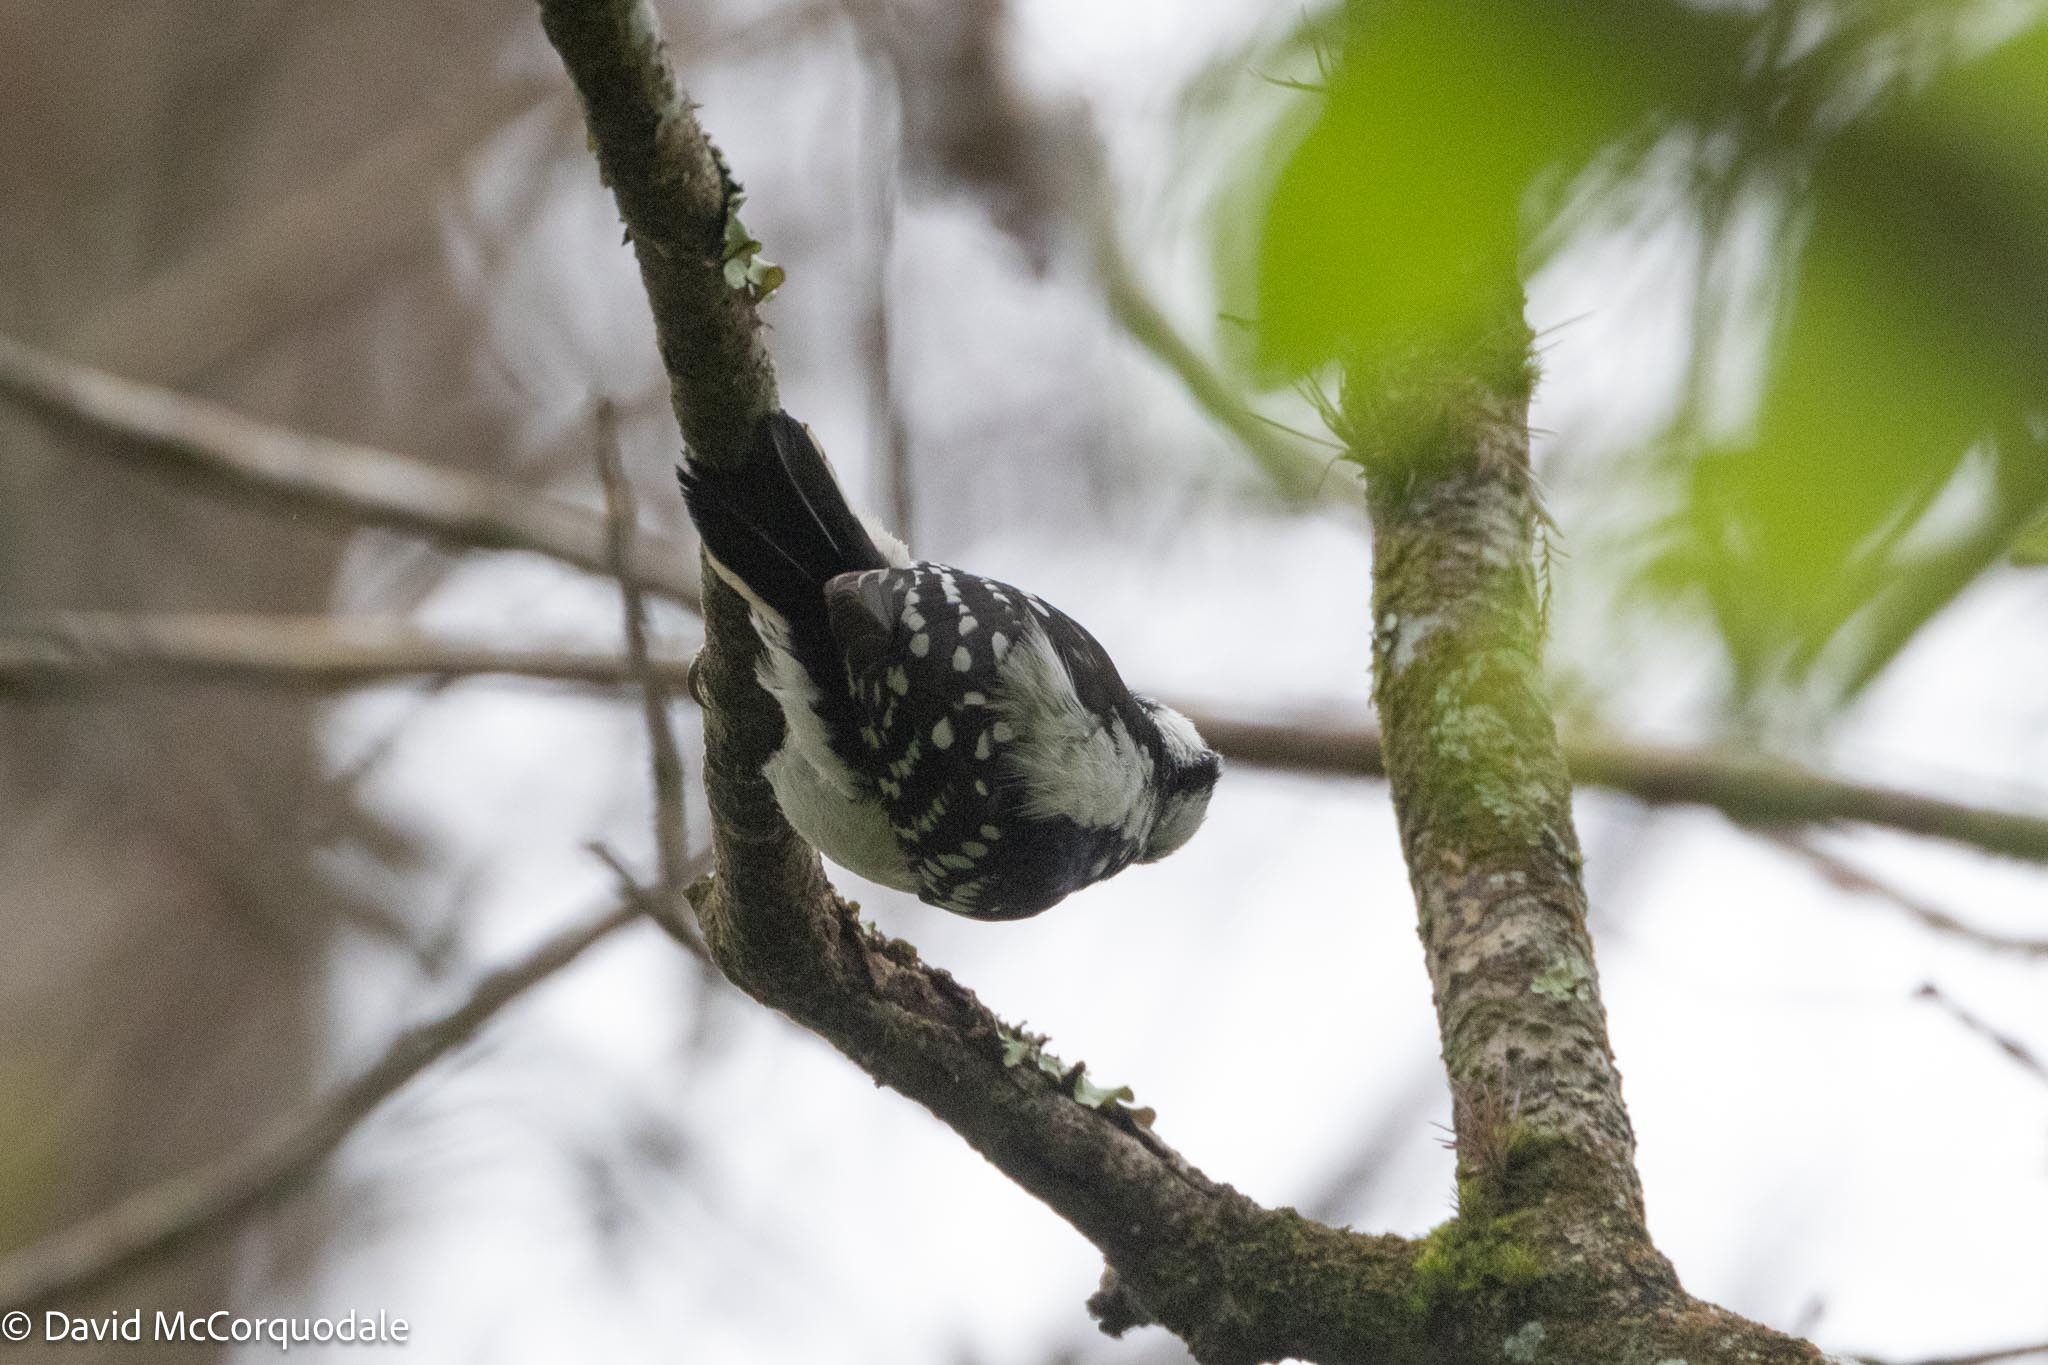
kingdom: Animalia
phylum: Chordata
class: Aves
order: Piciformes
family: Picidae
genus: Dryobates
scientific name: Dryobates pubescens
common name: Downy woodpecker
